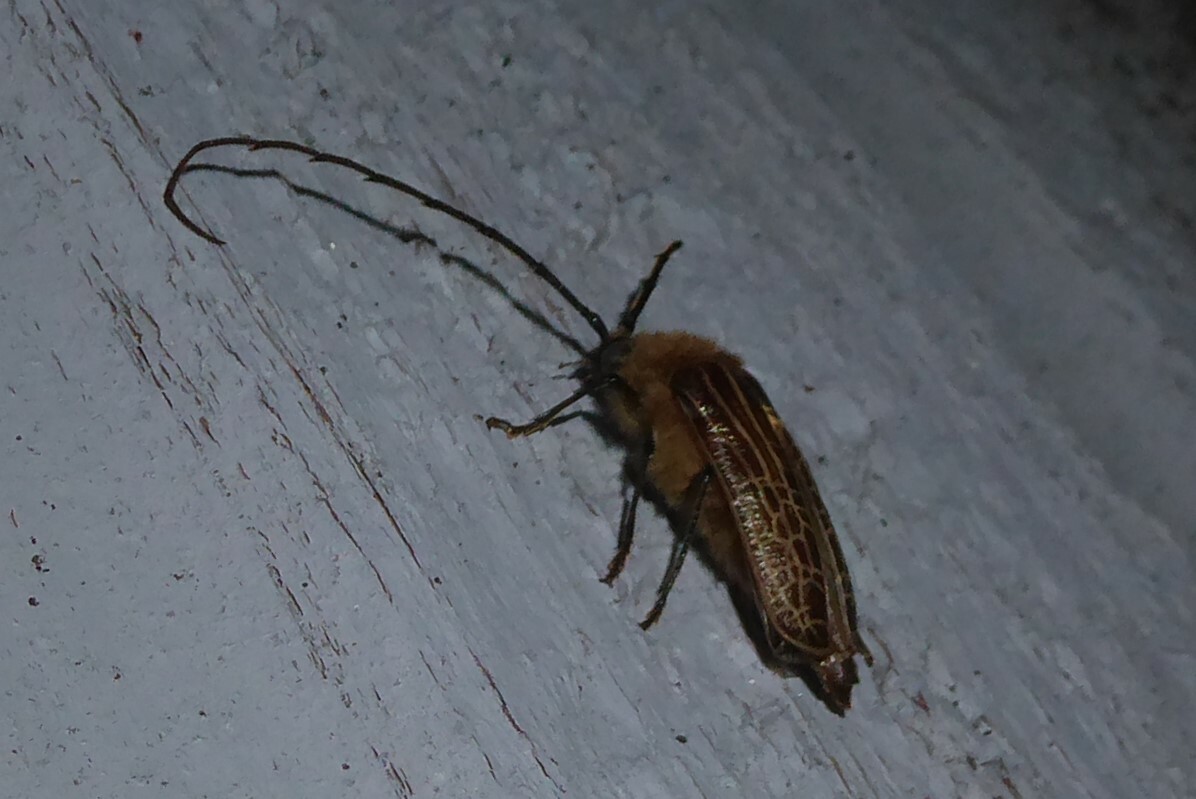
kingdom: Animalia
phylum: Arthropoda
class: Insecta
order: Coleoptera
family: Cerambycidae
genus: Prionoplus
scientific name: Prionoplus reticularis
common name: Huhu beetle
